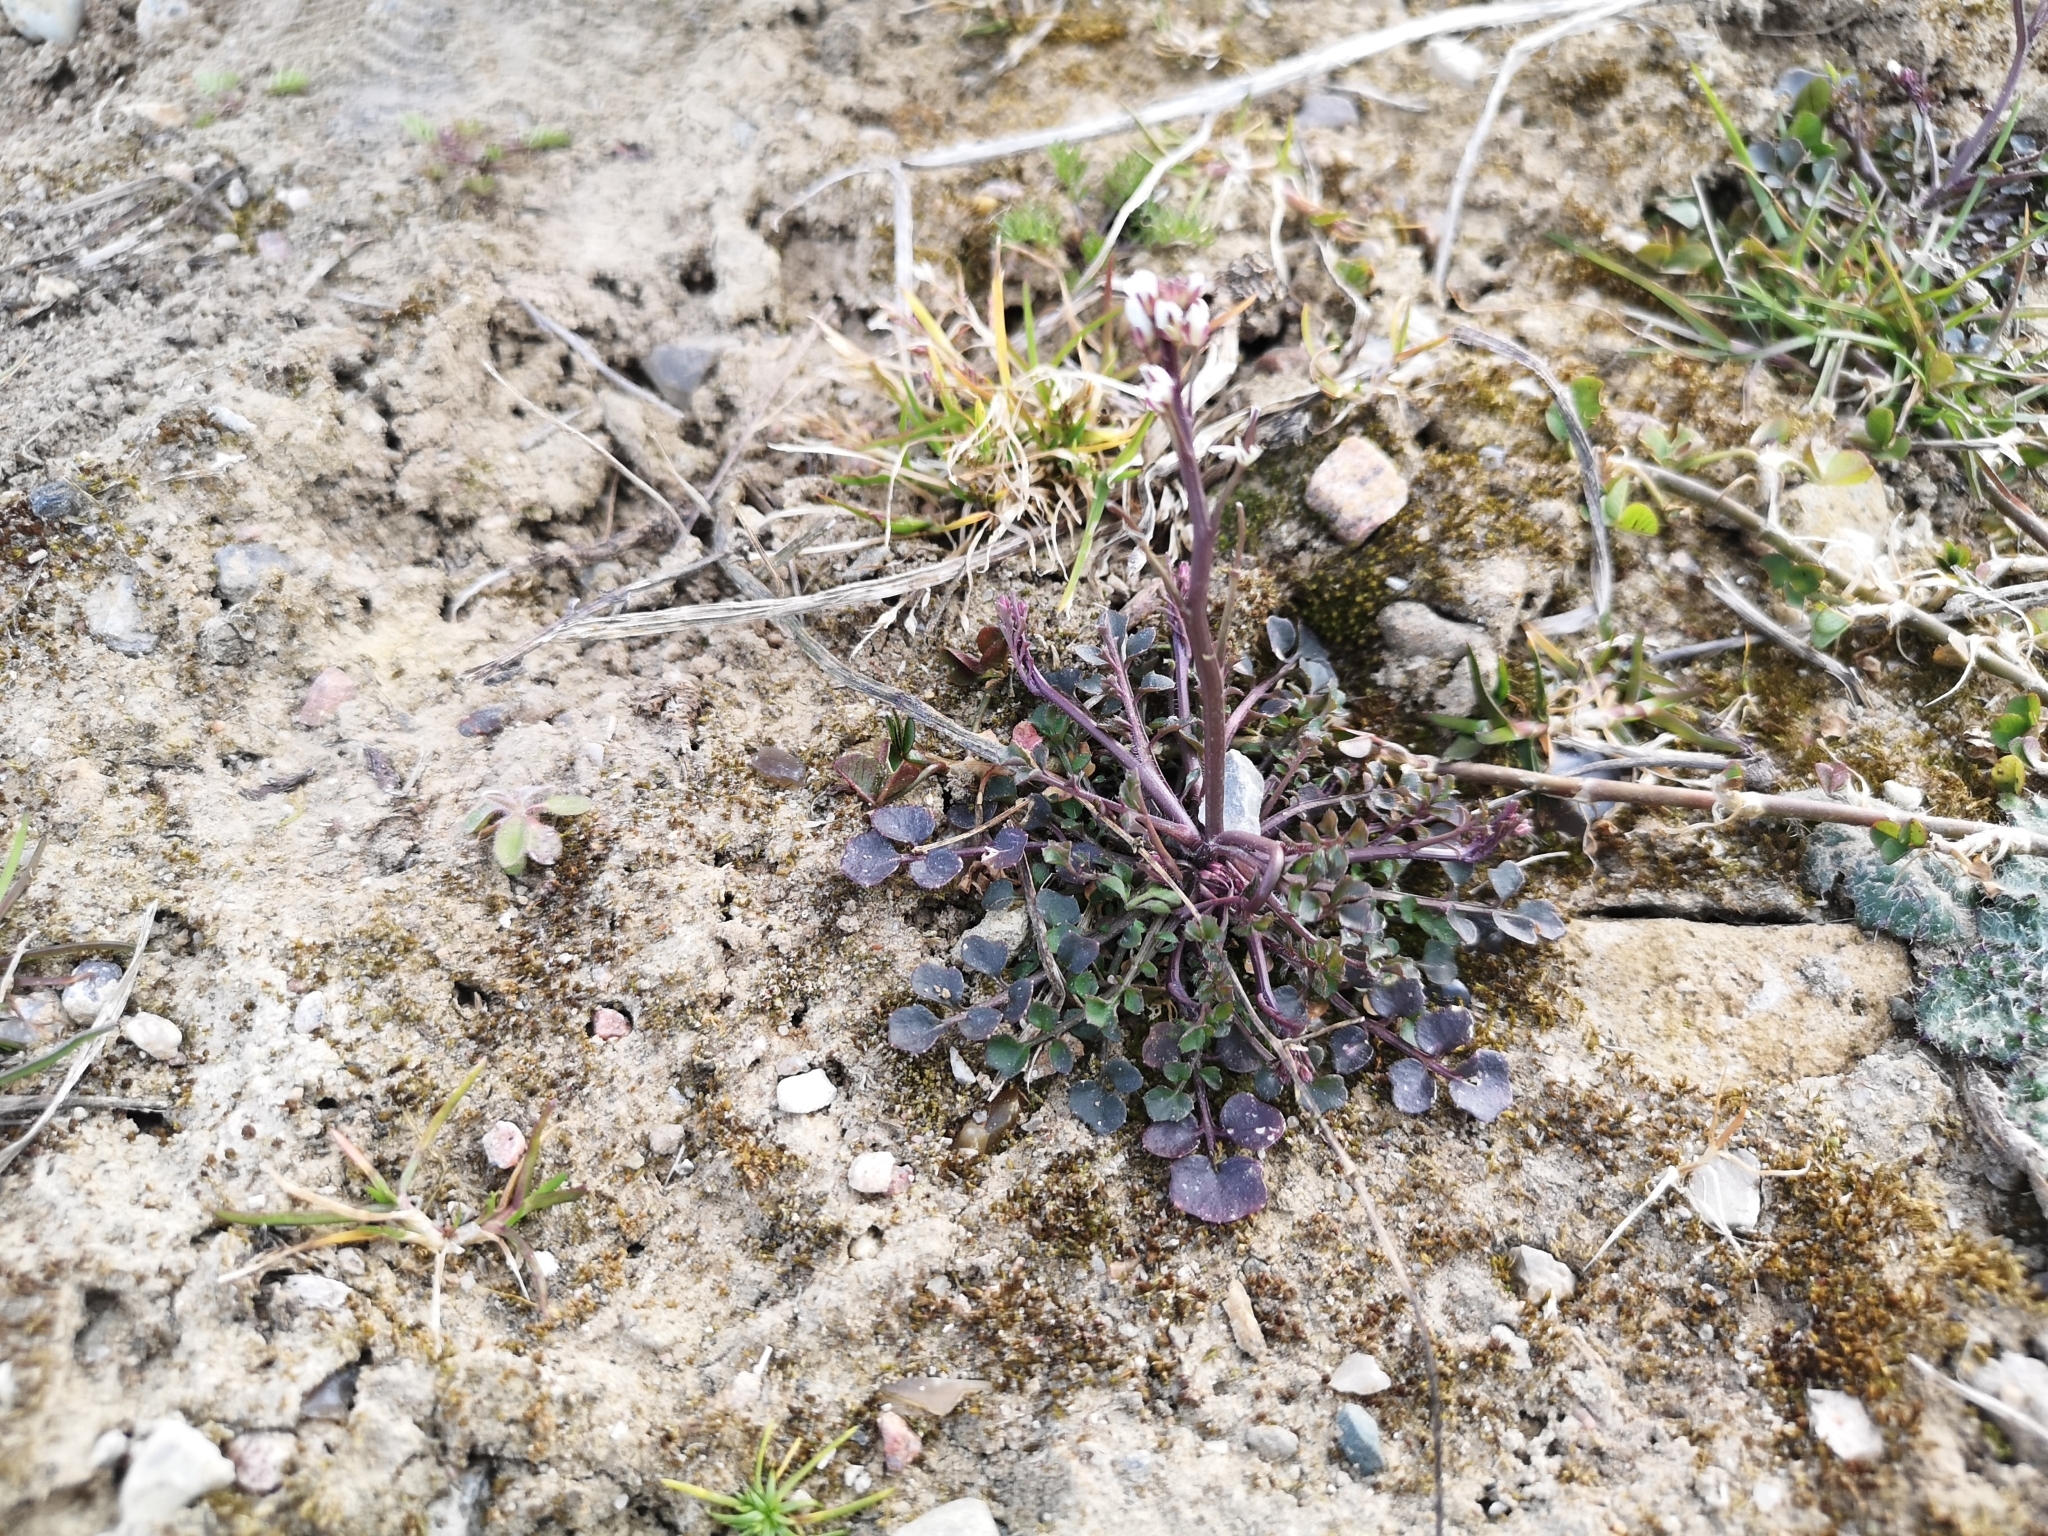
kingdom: Plantae
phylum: Tracheophyta
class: Magnoliopsida
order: Brassicales
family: Brassicaceae
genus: Cardamine
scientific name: Cardamine hirsuta
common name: Hairy bittercress
